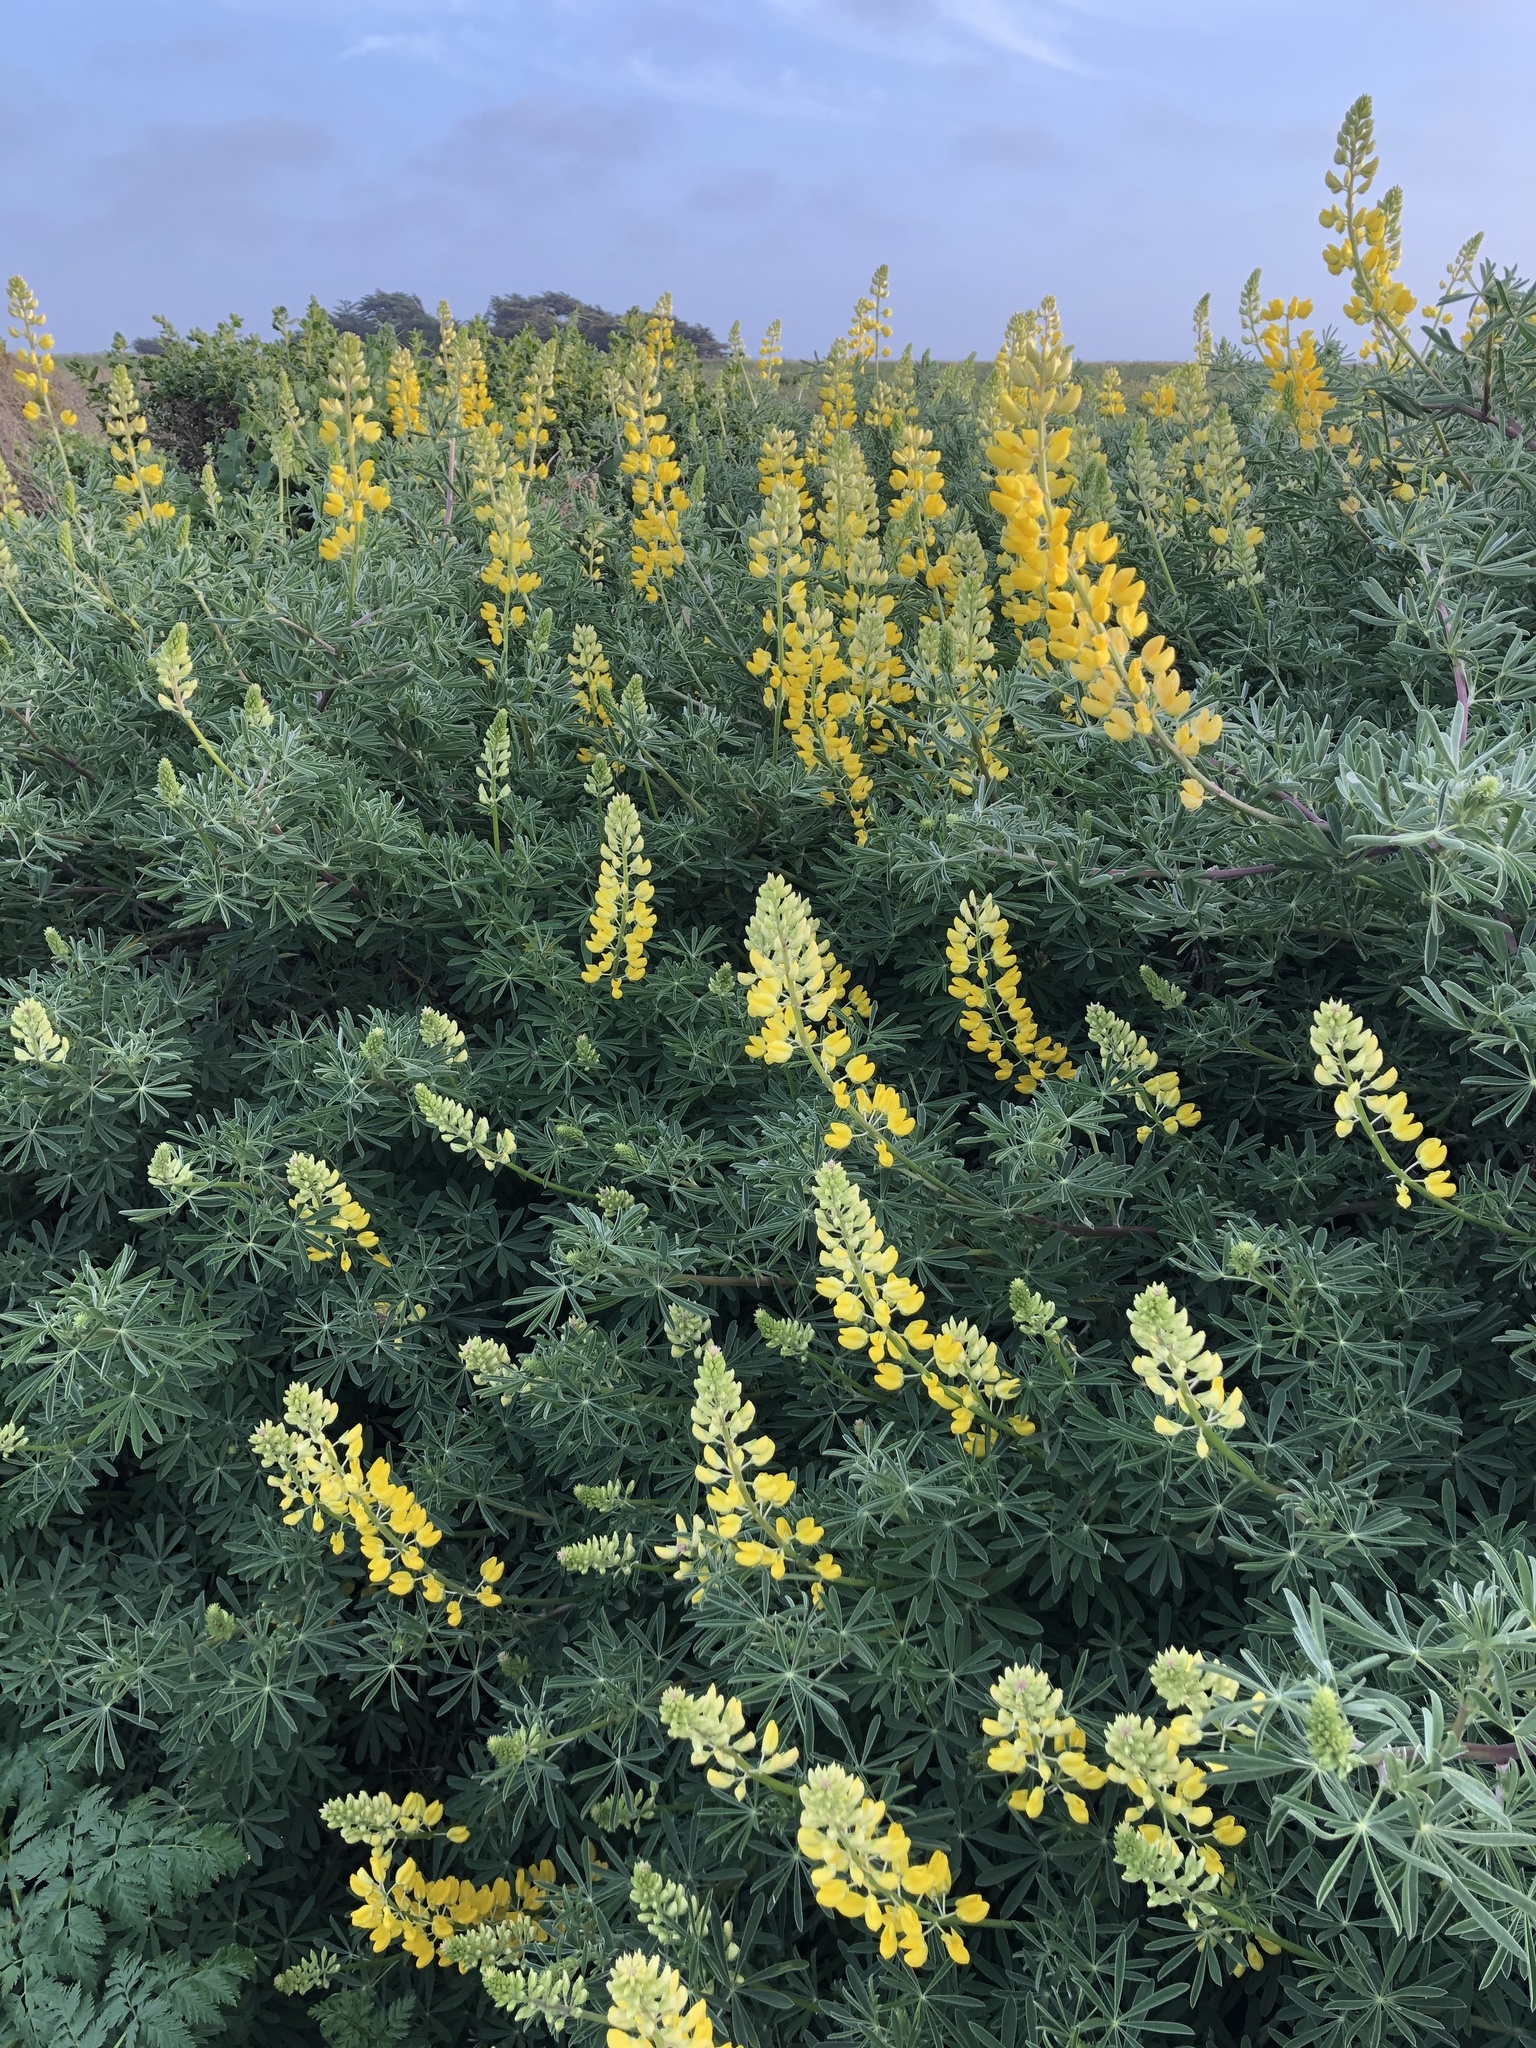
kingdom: Plantae
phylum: Tracheophyta
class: Magnoliopsida
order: Fabales
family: Fabaceae
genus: Lupinus
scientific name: Lupinus arboreus
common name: Yellow bush lupine
